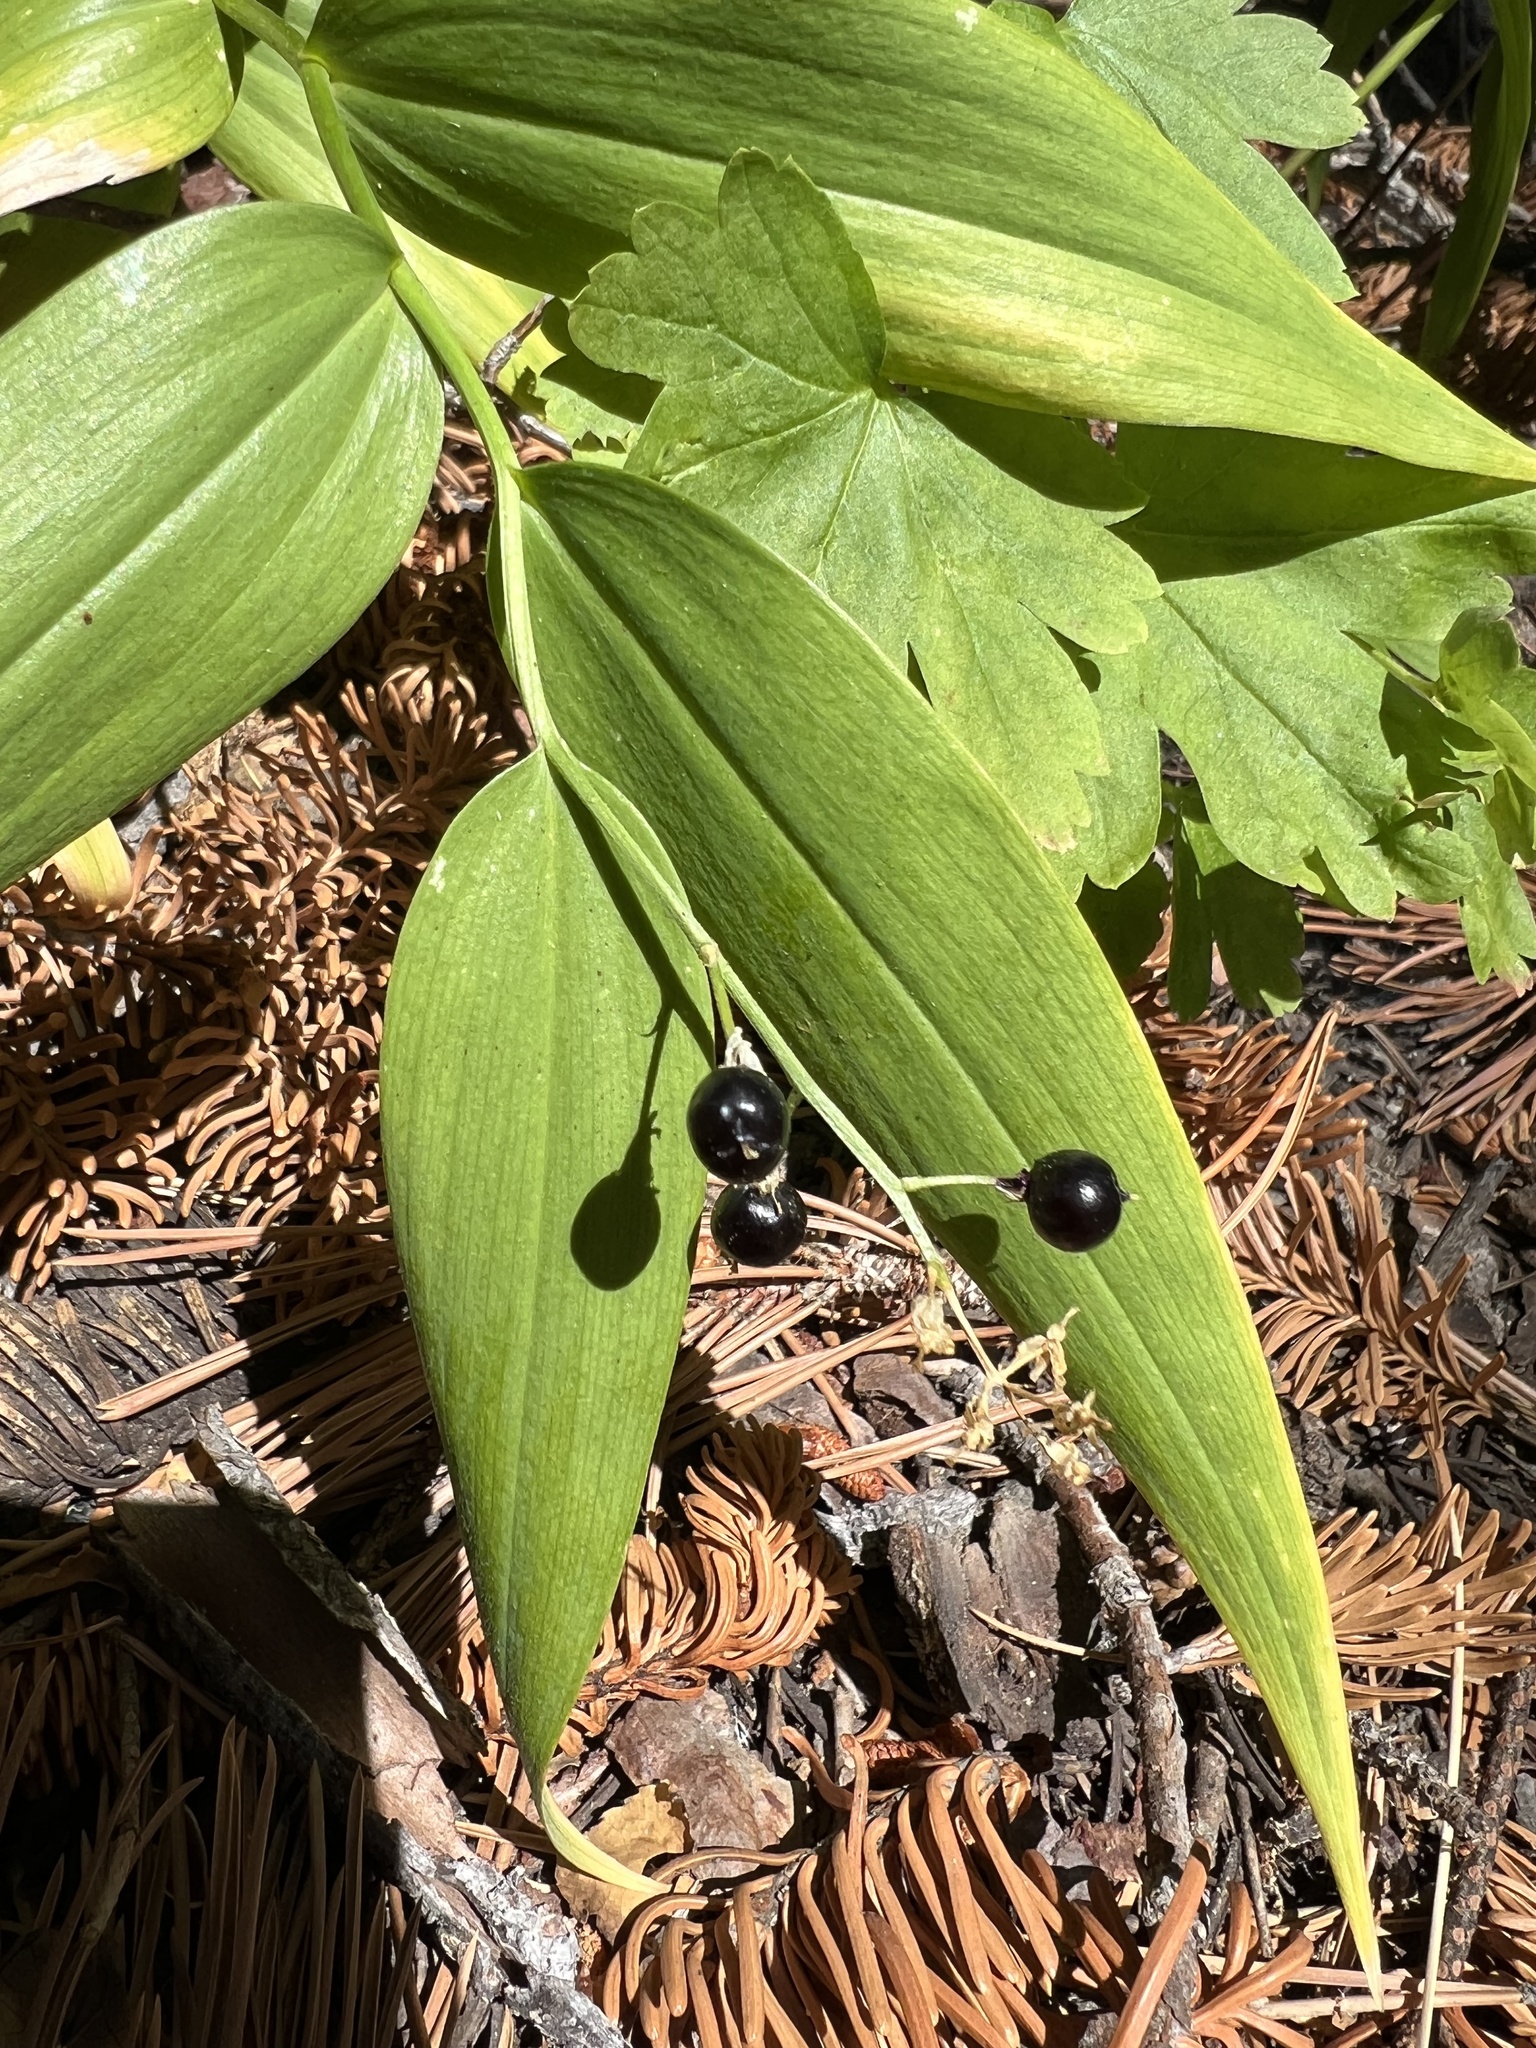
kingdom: Plantae
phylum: Tracheophyta
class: Liliopsida
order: Asparagales
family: Asparagaceae
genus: Maianthemum
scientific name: Maianthemum stellatum
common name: Little false solomon's seal
